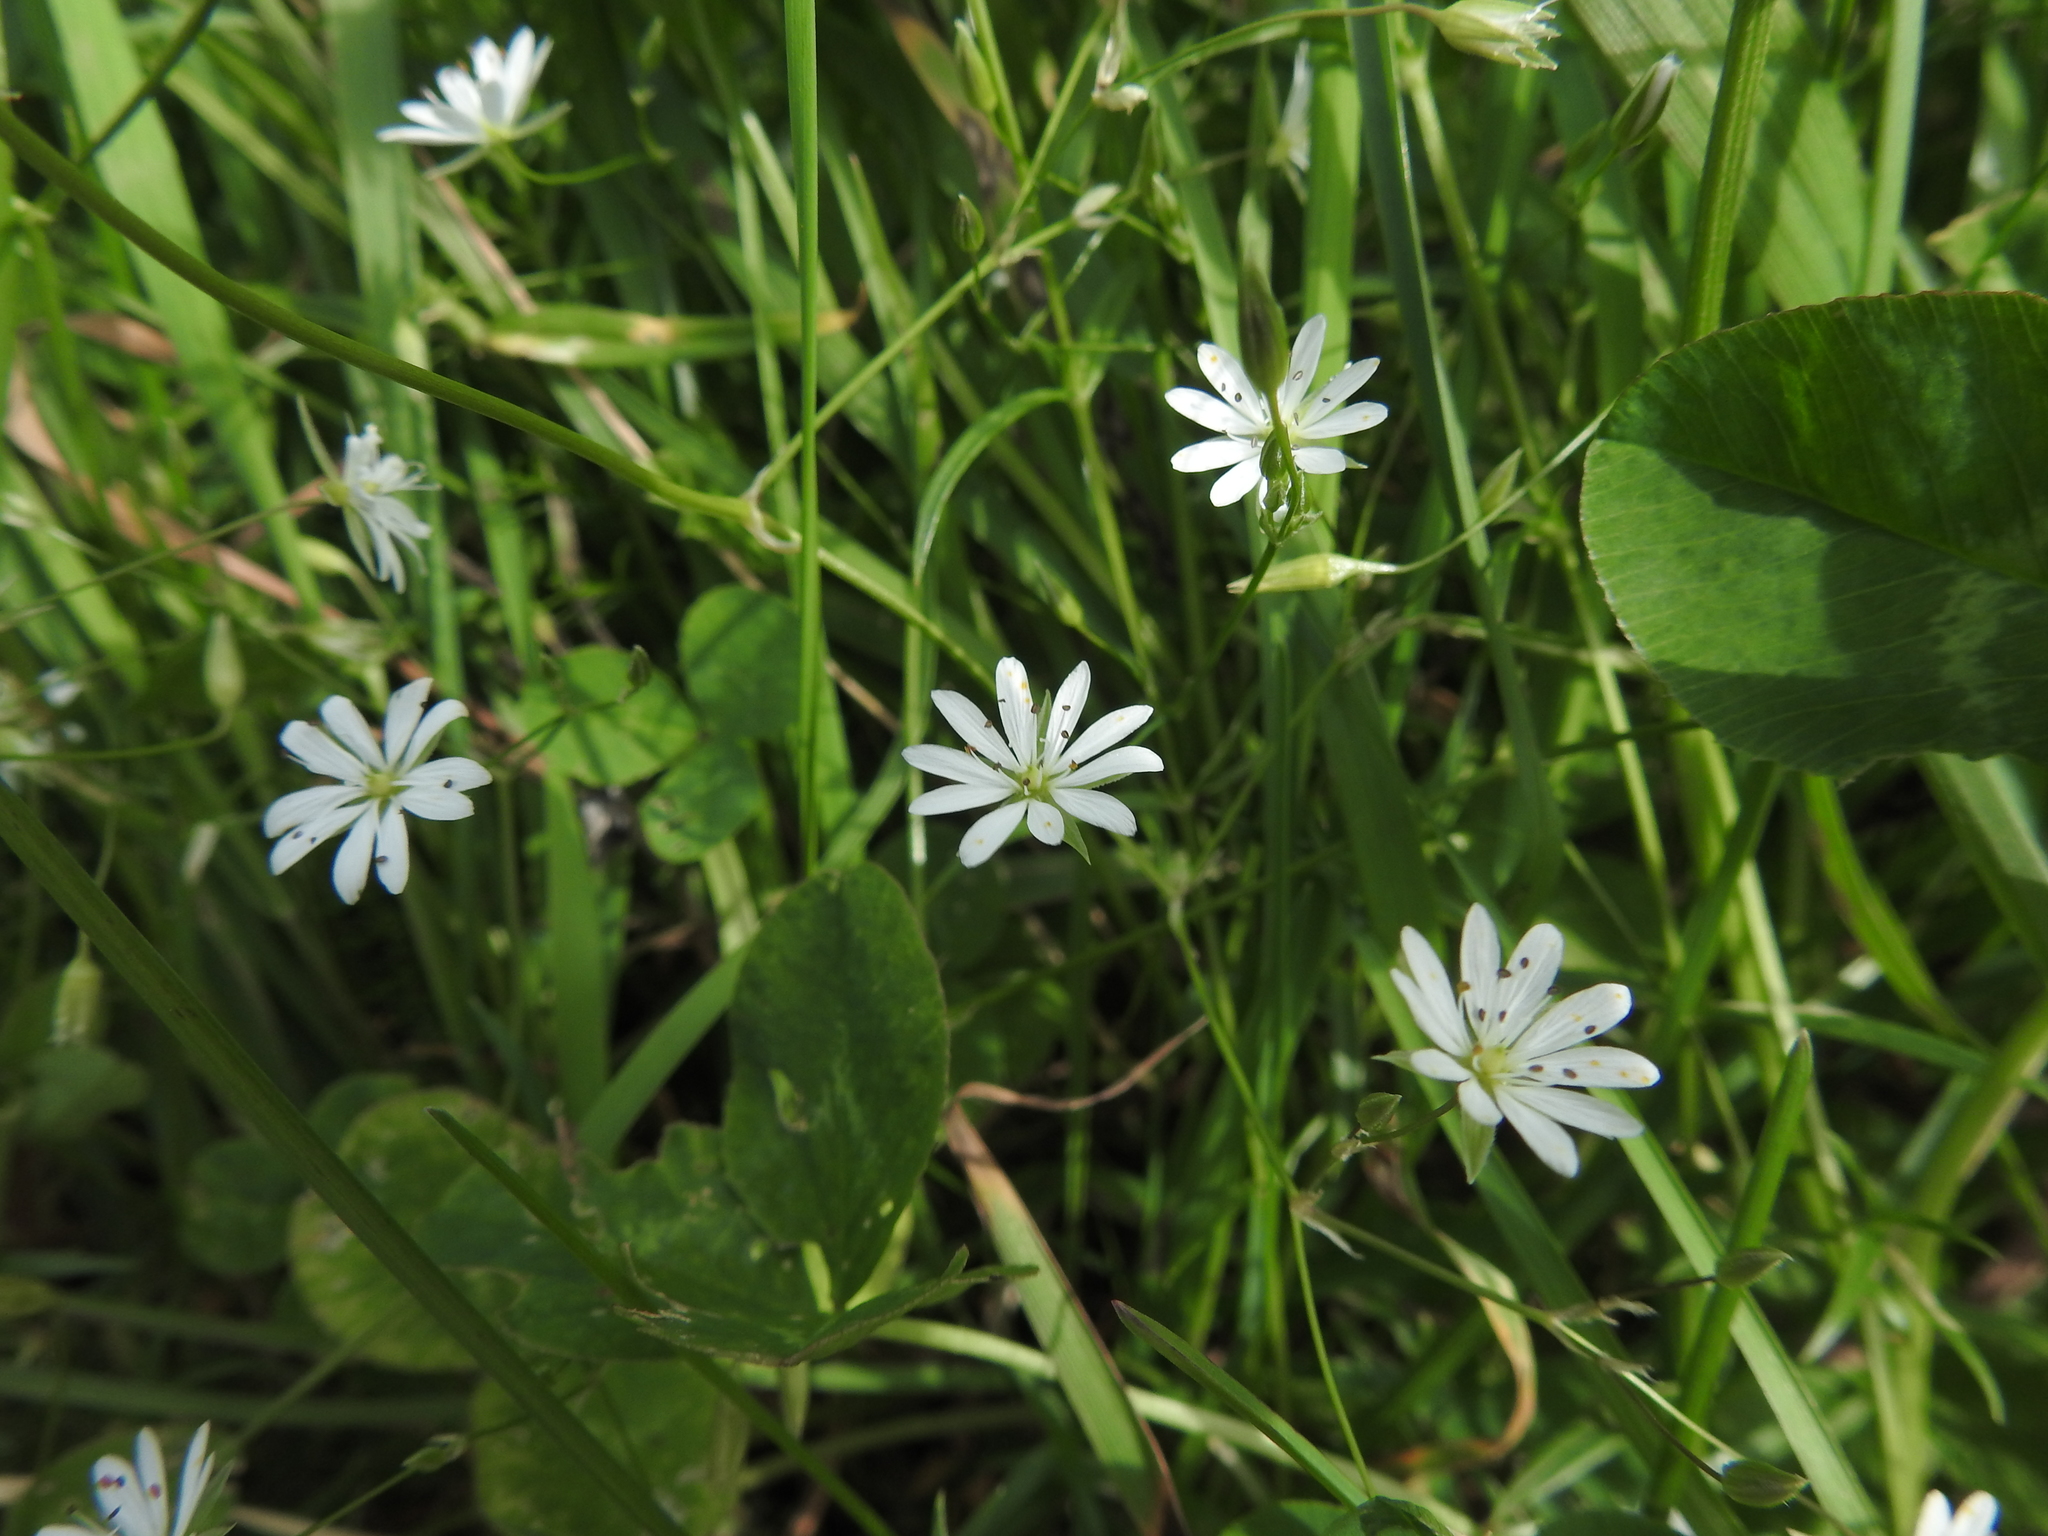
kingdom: Plantae
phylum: Tracheophyta
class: Magnoliopsida
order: Caryophyllales
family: Caryophyllaceae
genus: Stellaria
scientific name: Stellaria graminea
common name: Grass-like starwort
